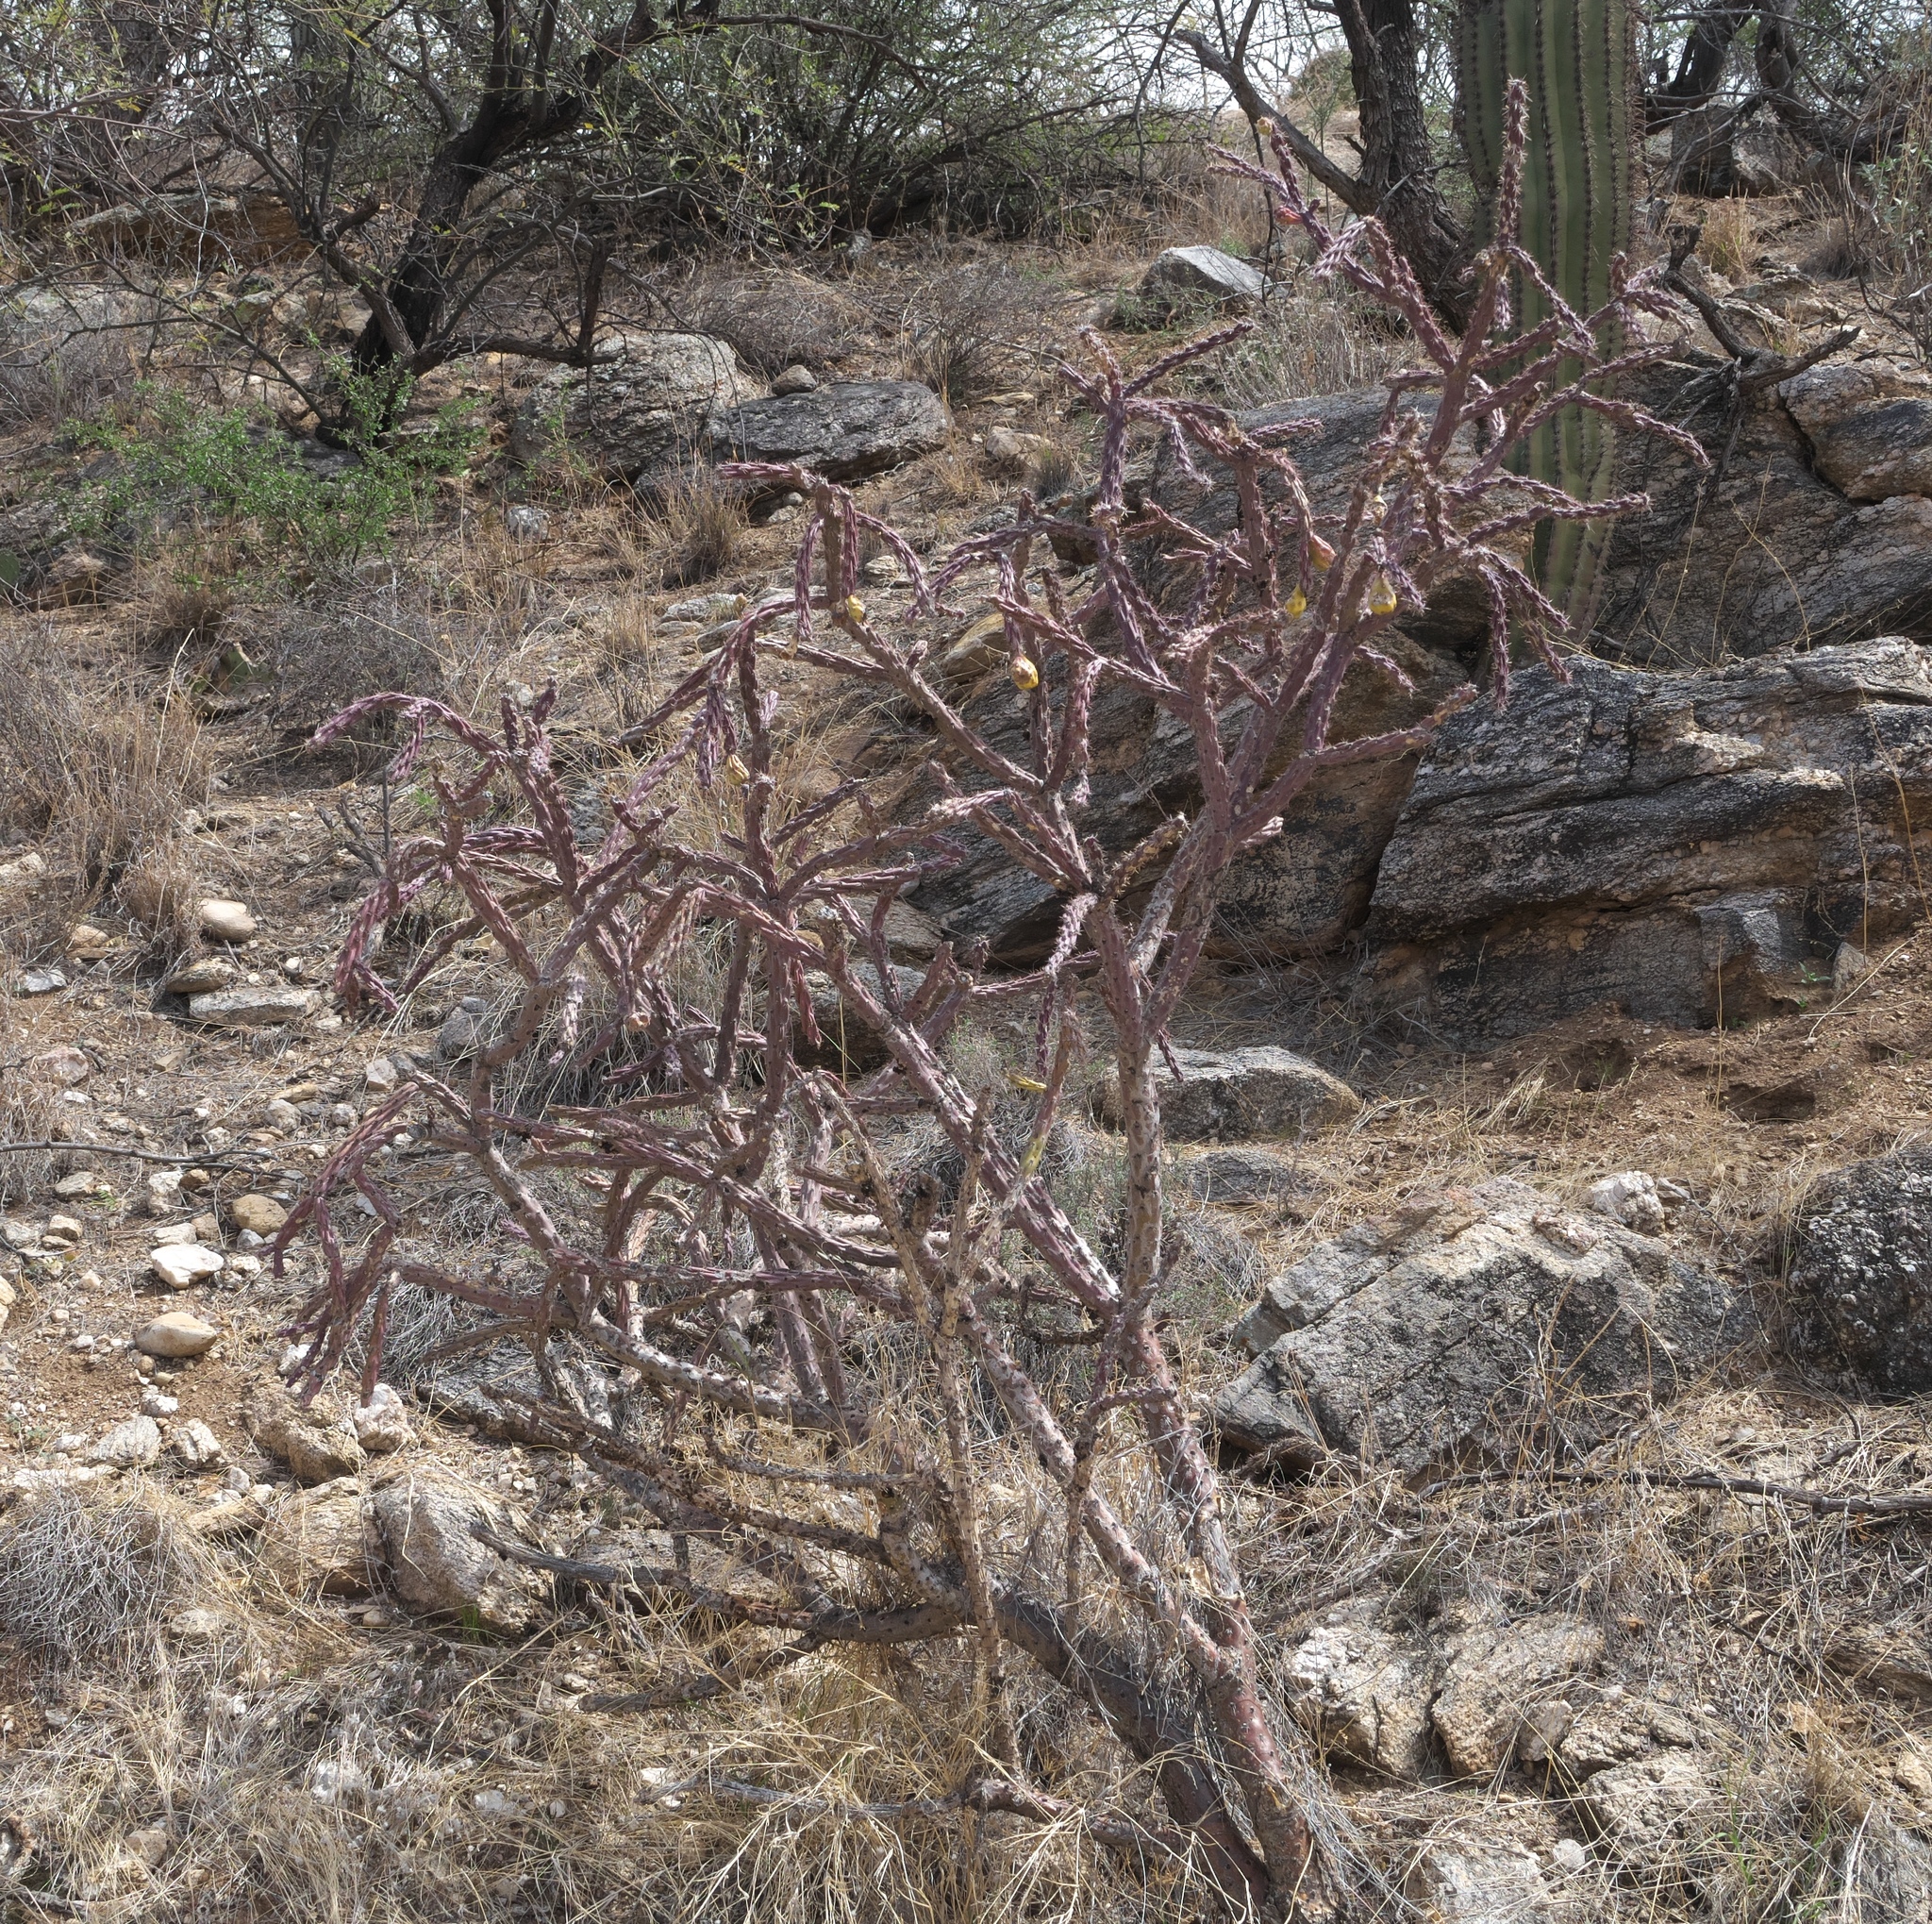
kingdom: Plantae
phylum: Tracheophyta
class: Magnoliopsida
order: Caryophyllales
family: Cactaceae
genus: Cylindropuntia
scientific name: Cylindropuntia thurberi
